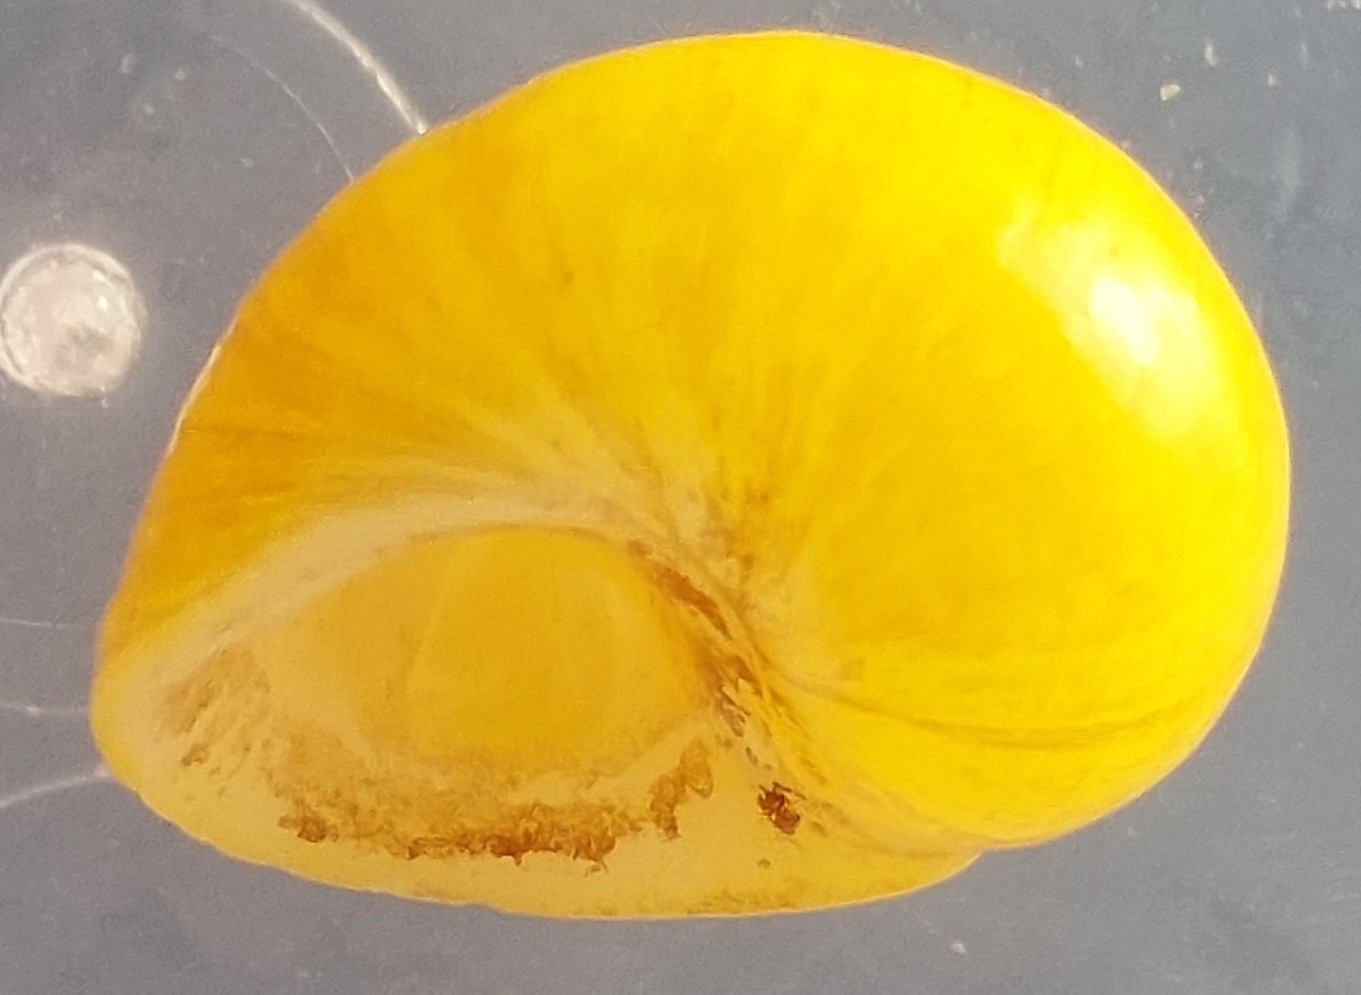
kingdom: Animalia
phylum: Mollusca
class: Gastropoda
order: Littorinimorpha
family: Littorinidae
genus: Littorina
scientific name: Littorina
